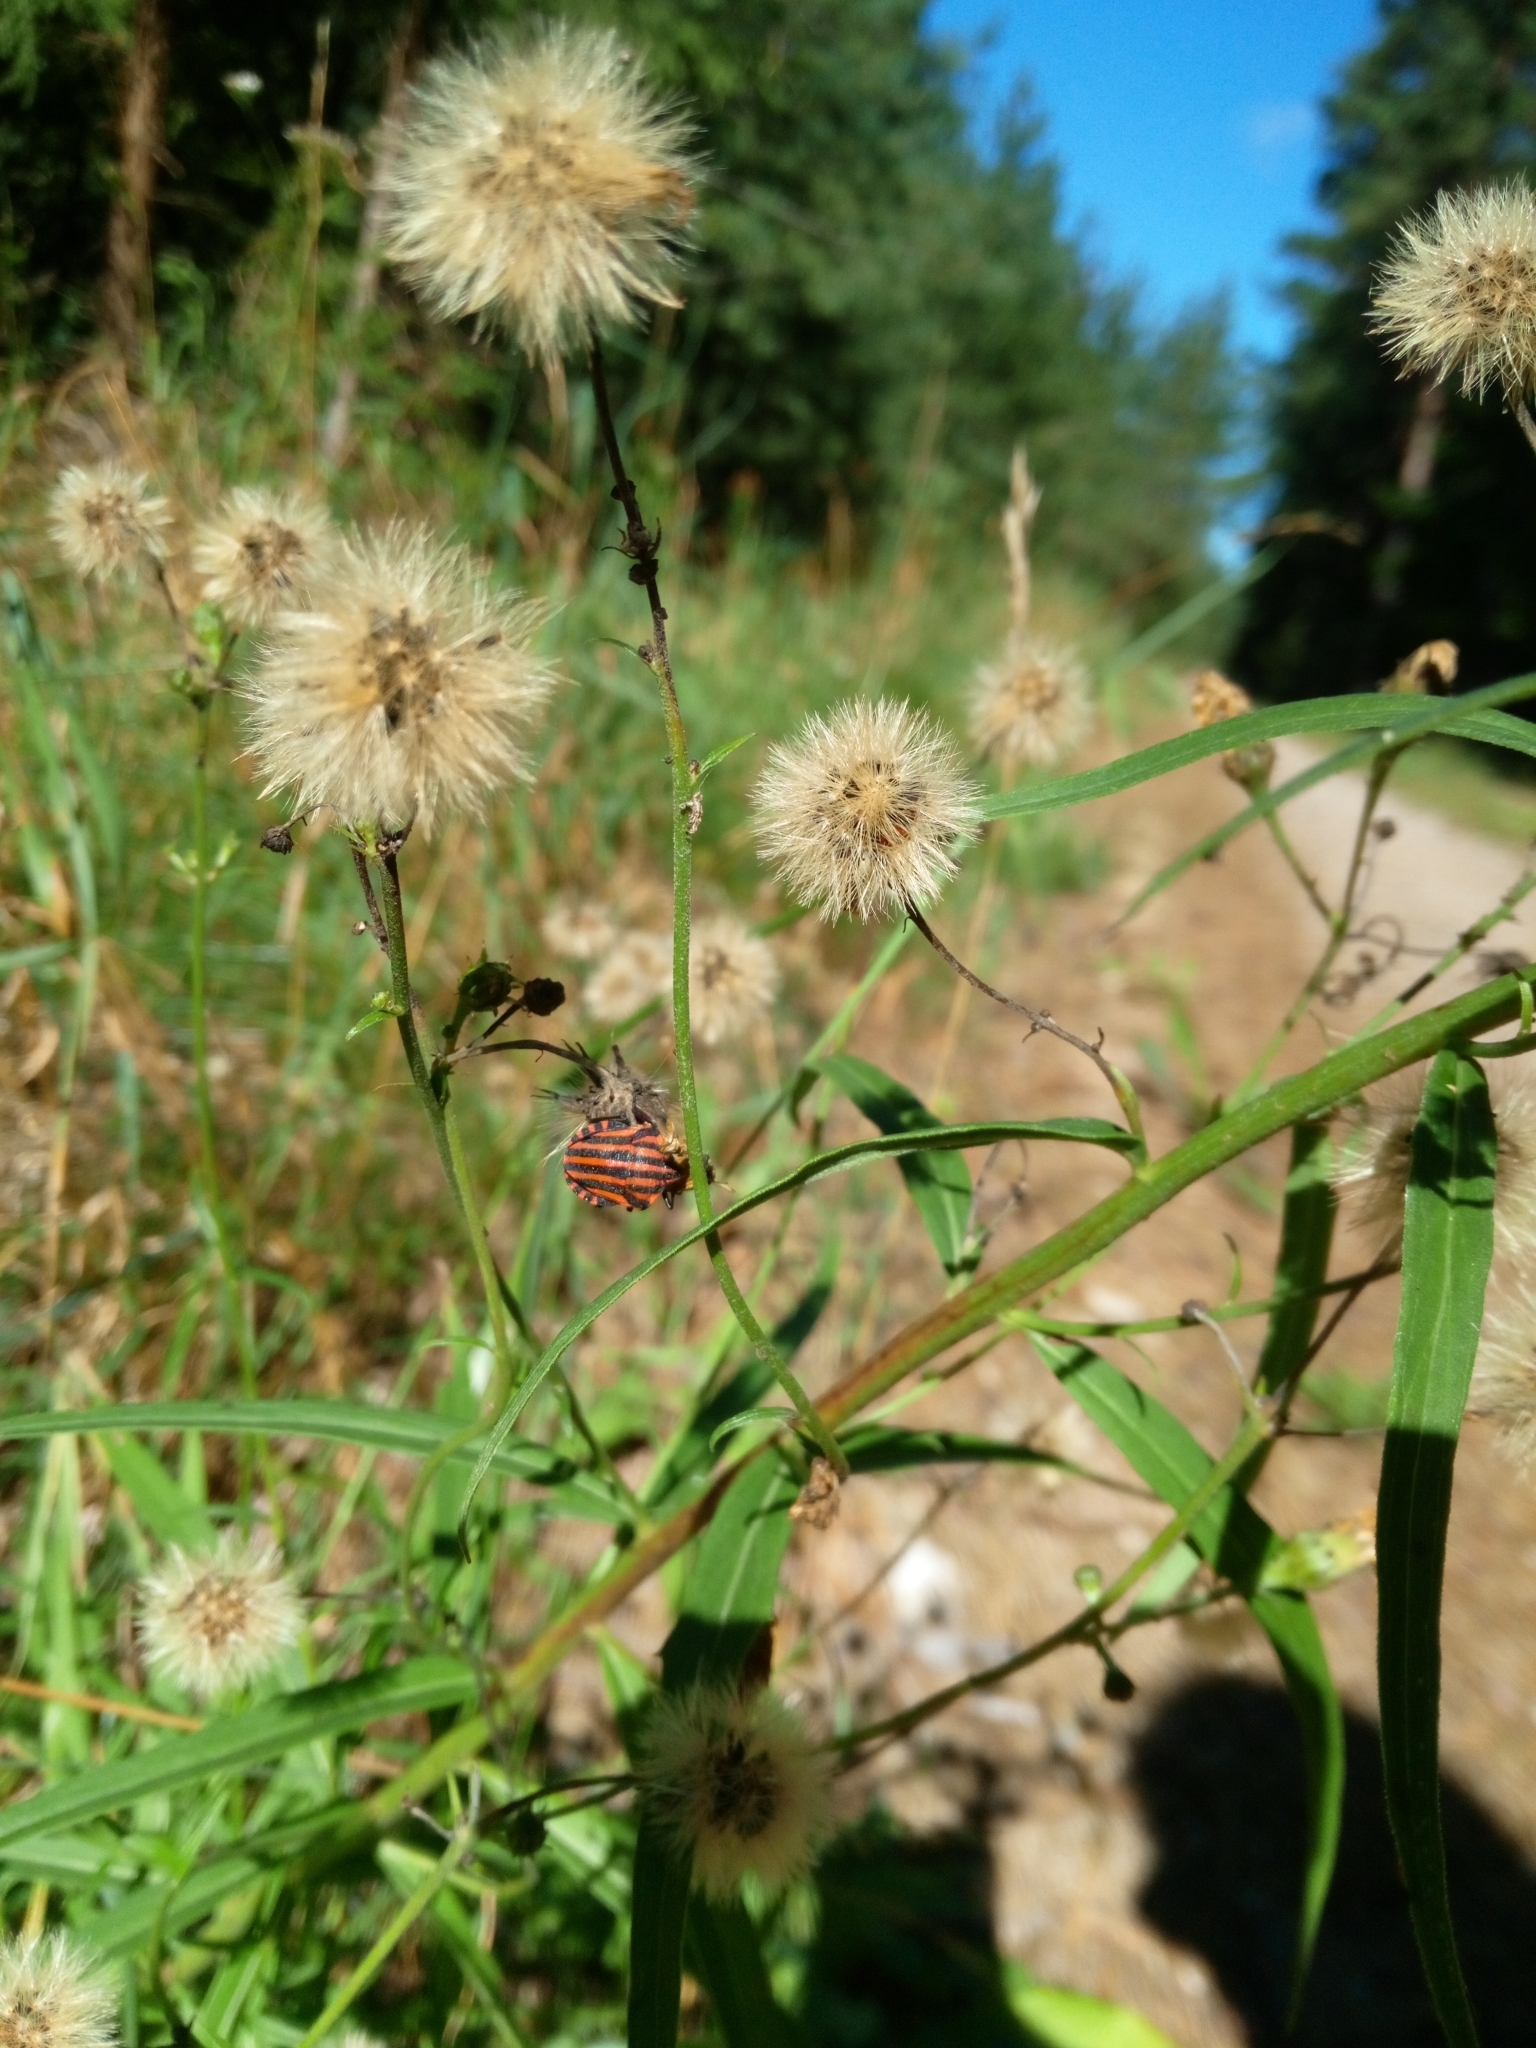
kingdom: Animalia
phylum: Arthropoda
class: Insecta
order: Hemiptera
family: Pentatomidae
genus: Graphosoma
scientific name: Graphosoma italicum
